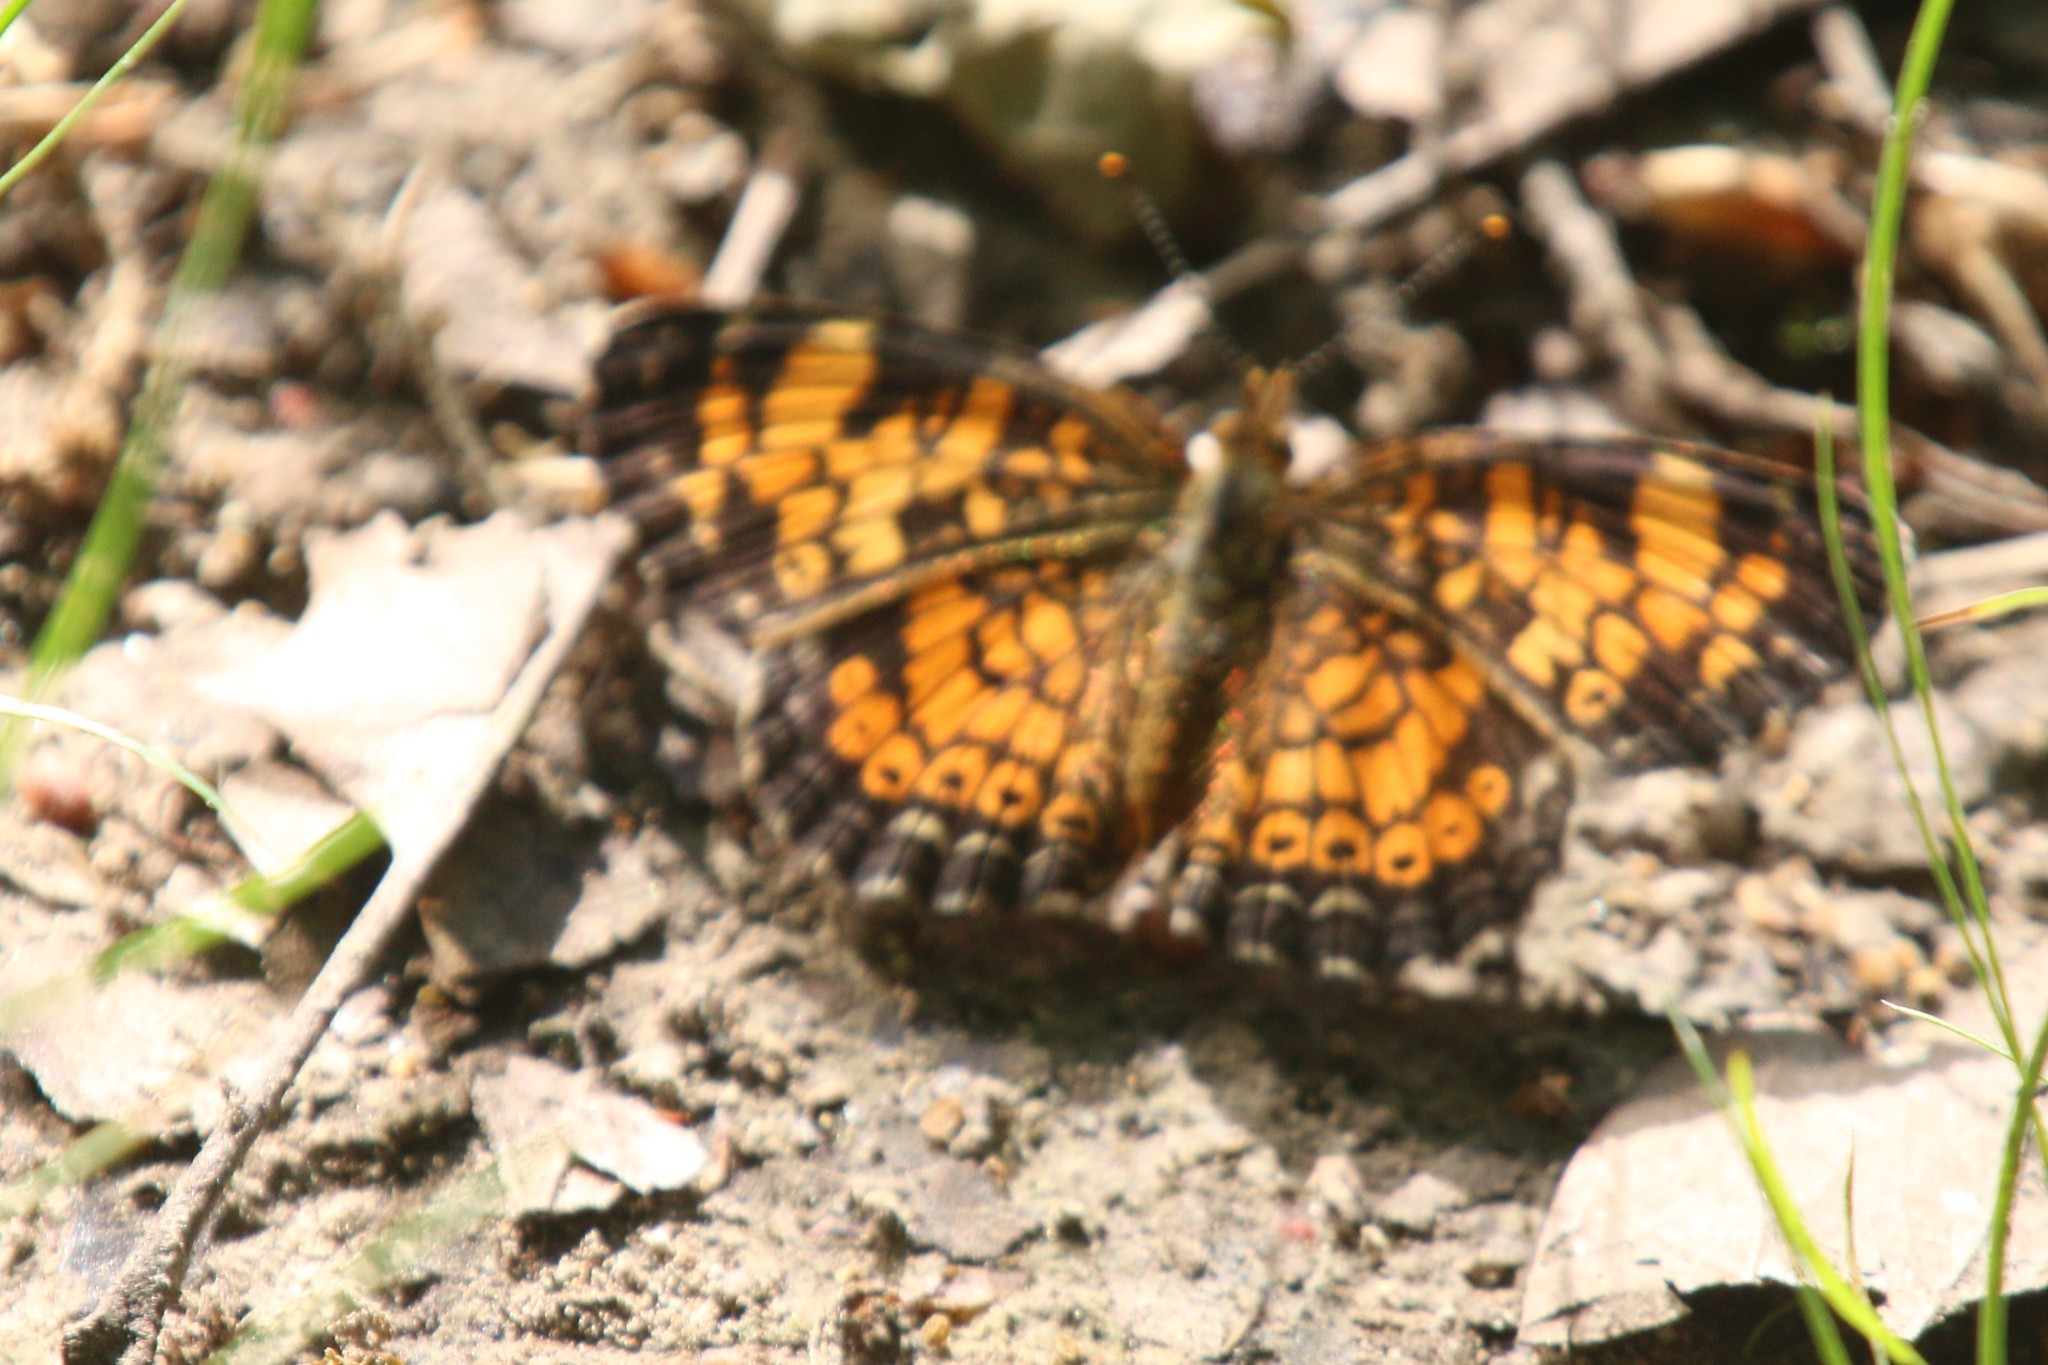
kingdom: Animalia
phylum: Arthropoda
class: Insecta
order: Lepidoptera
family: Nymphalidae
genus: Phyciodes
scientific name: Phyciodes tharos
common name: Pearl crescent
